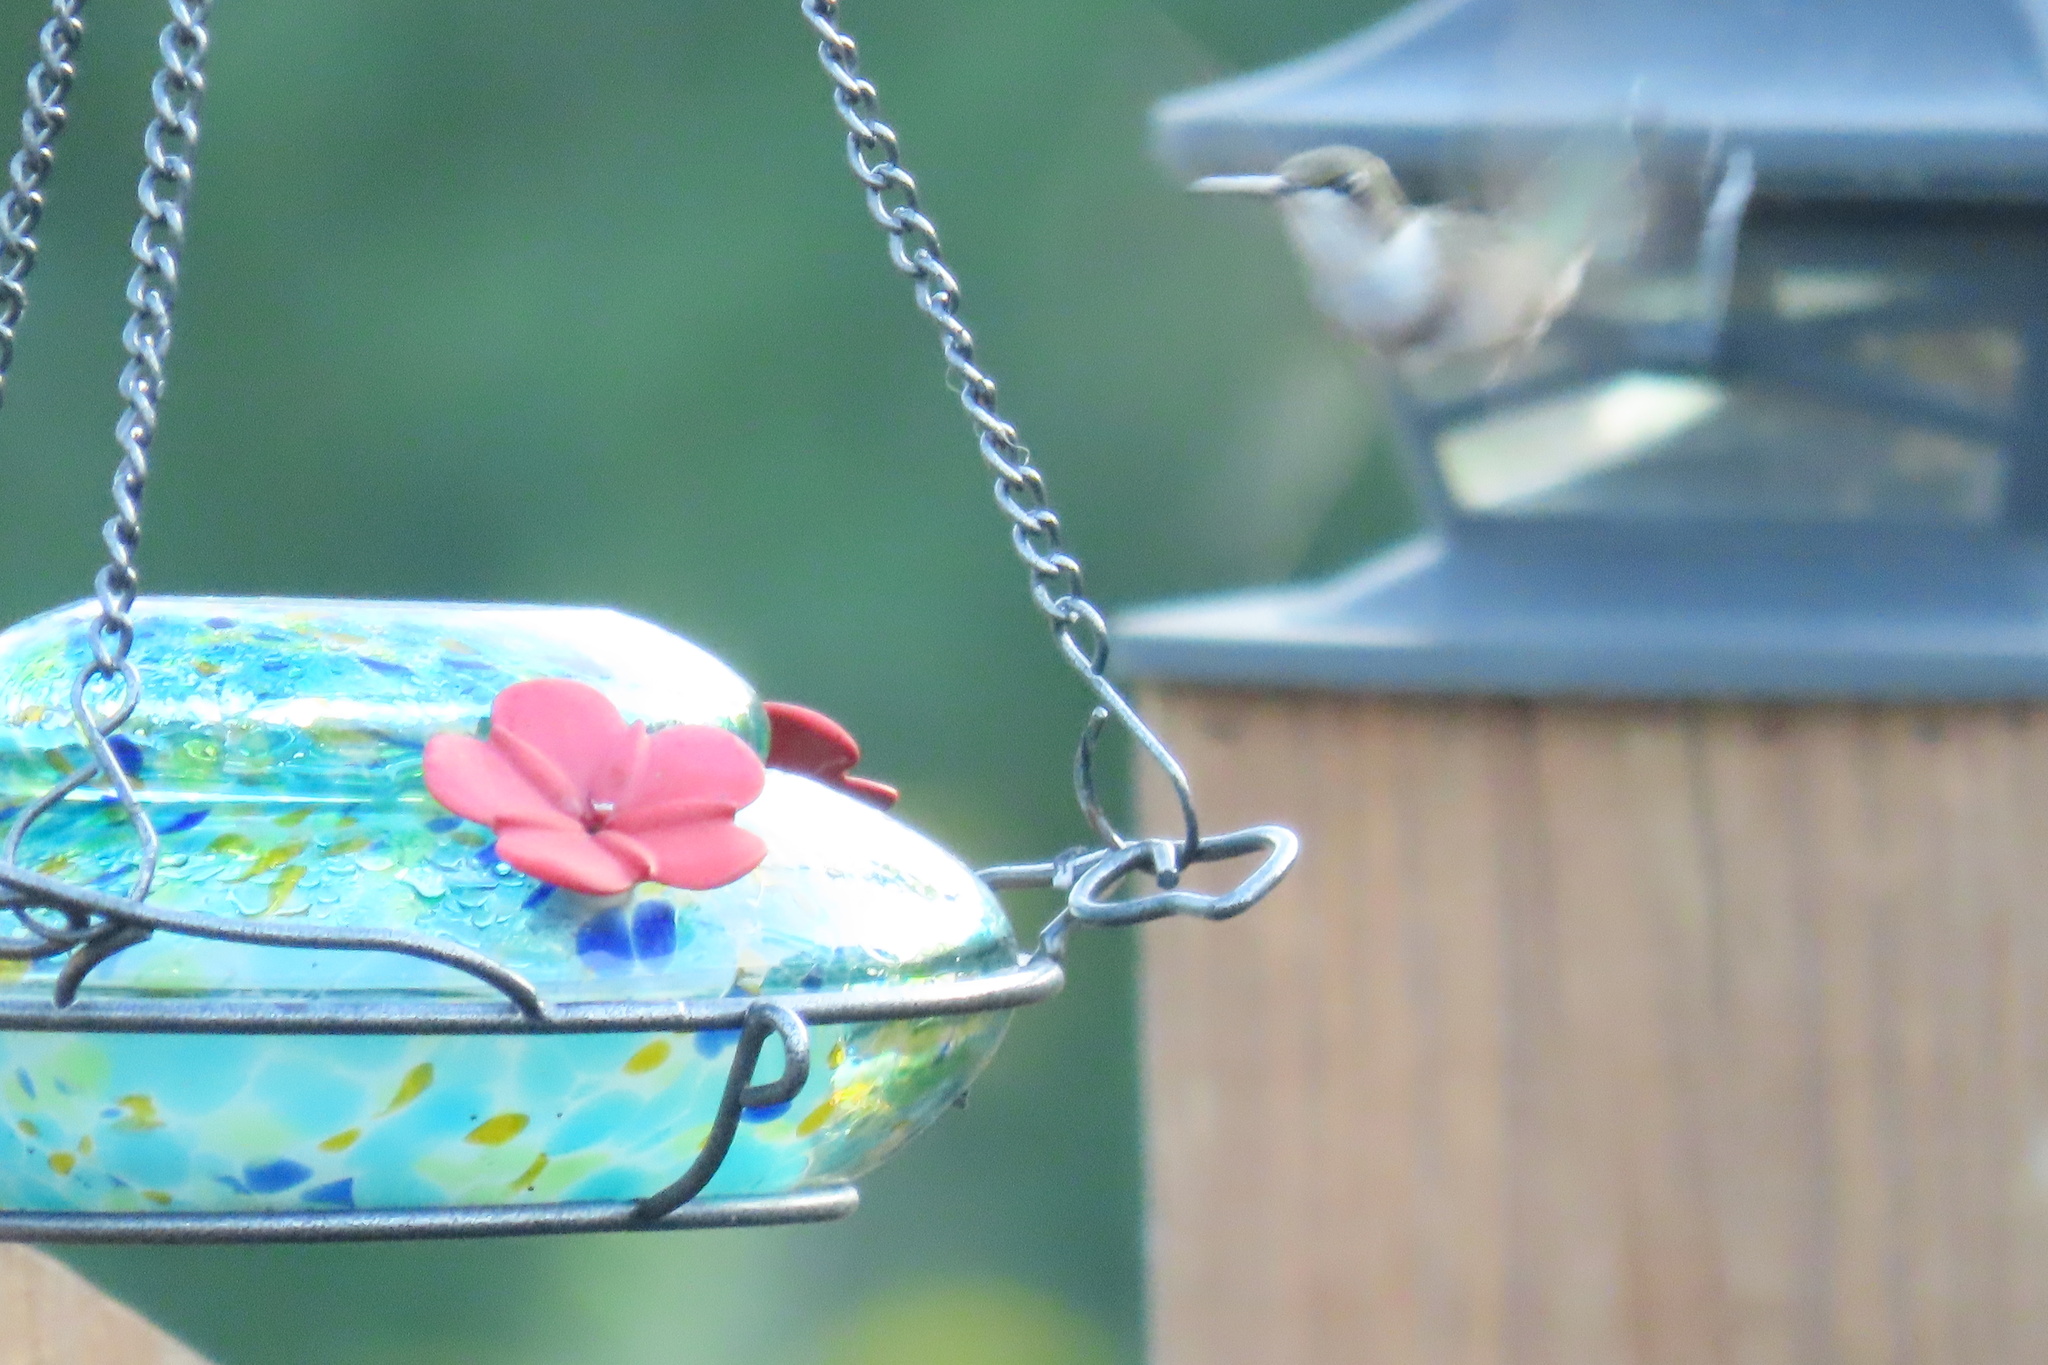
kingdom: Animalia
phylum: Chordata
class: Aves
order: Apodiformes
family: Trochilidae
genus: Archilochus
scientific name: Archilochus colubris
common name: Ruby-throated hummingbird
